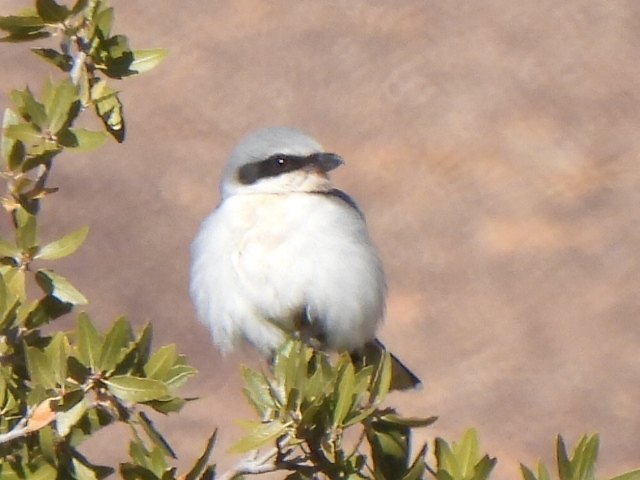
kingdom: Animalia
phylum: Chordata
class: Aves
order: Passeriformes
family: Laniidae
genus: Lanius
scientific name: Lanius ludovicianus
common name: Loggerhead shrike
